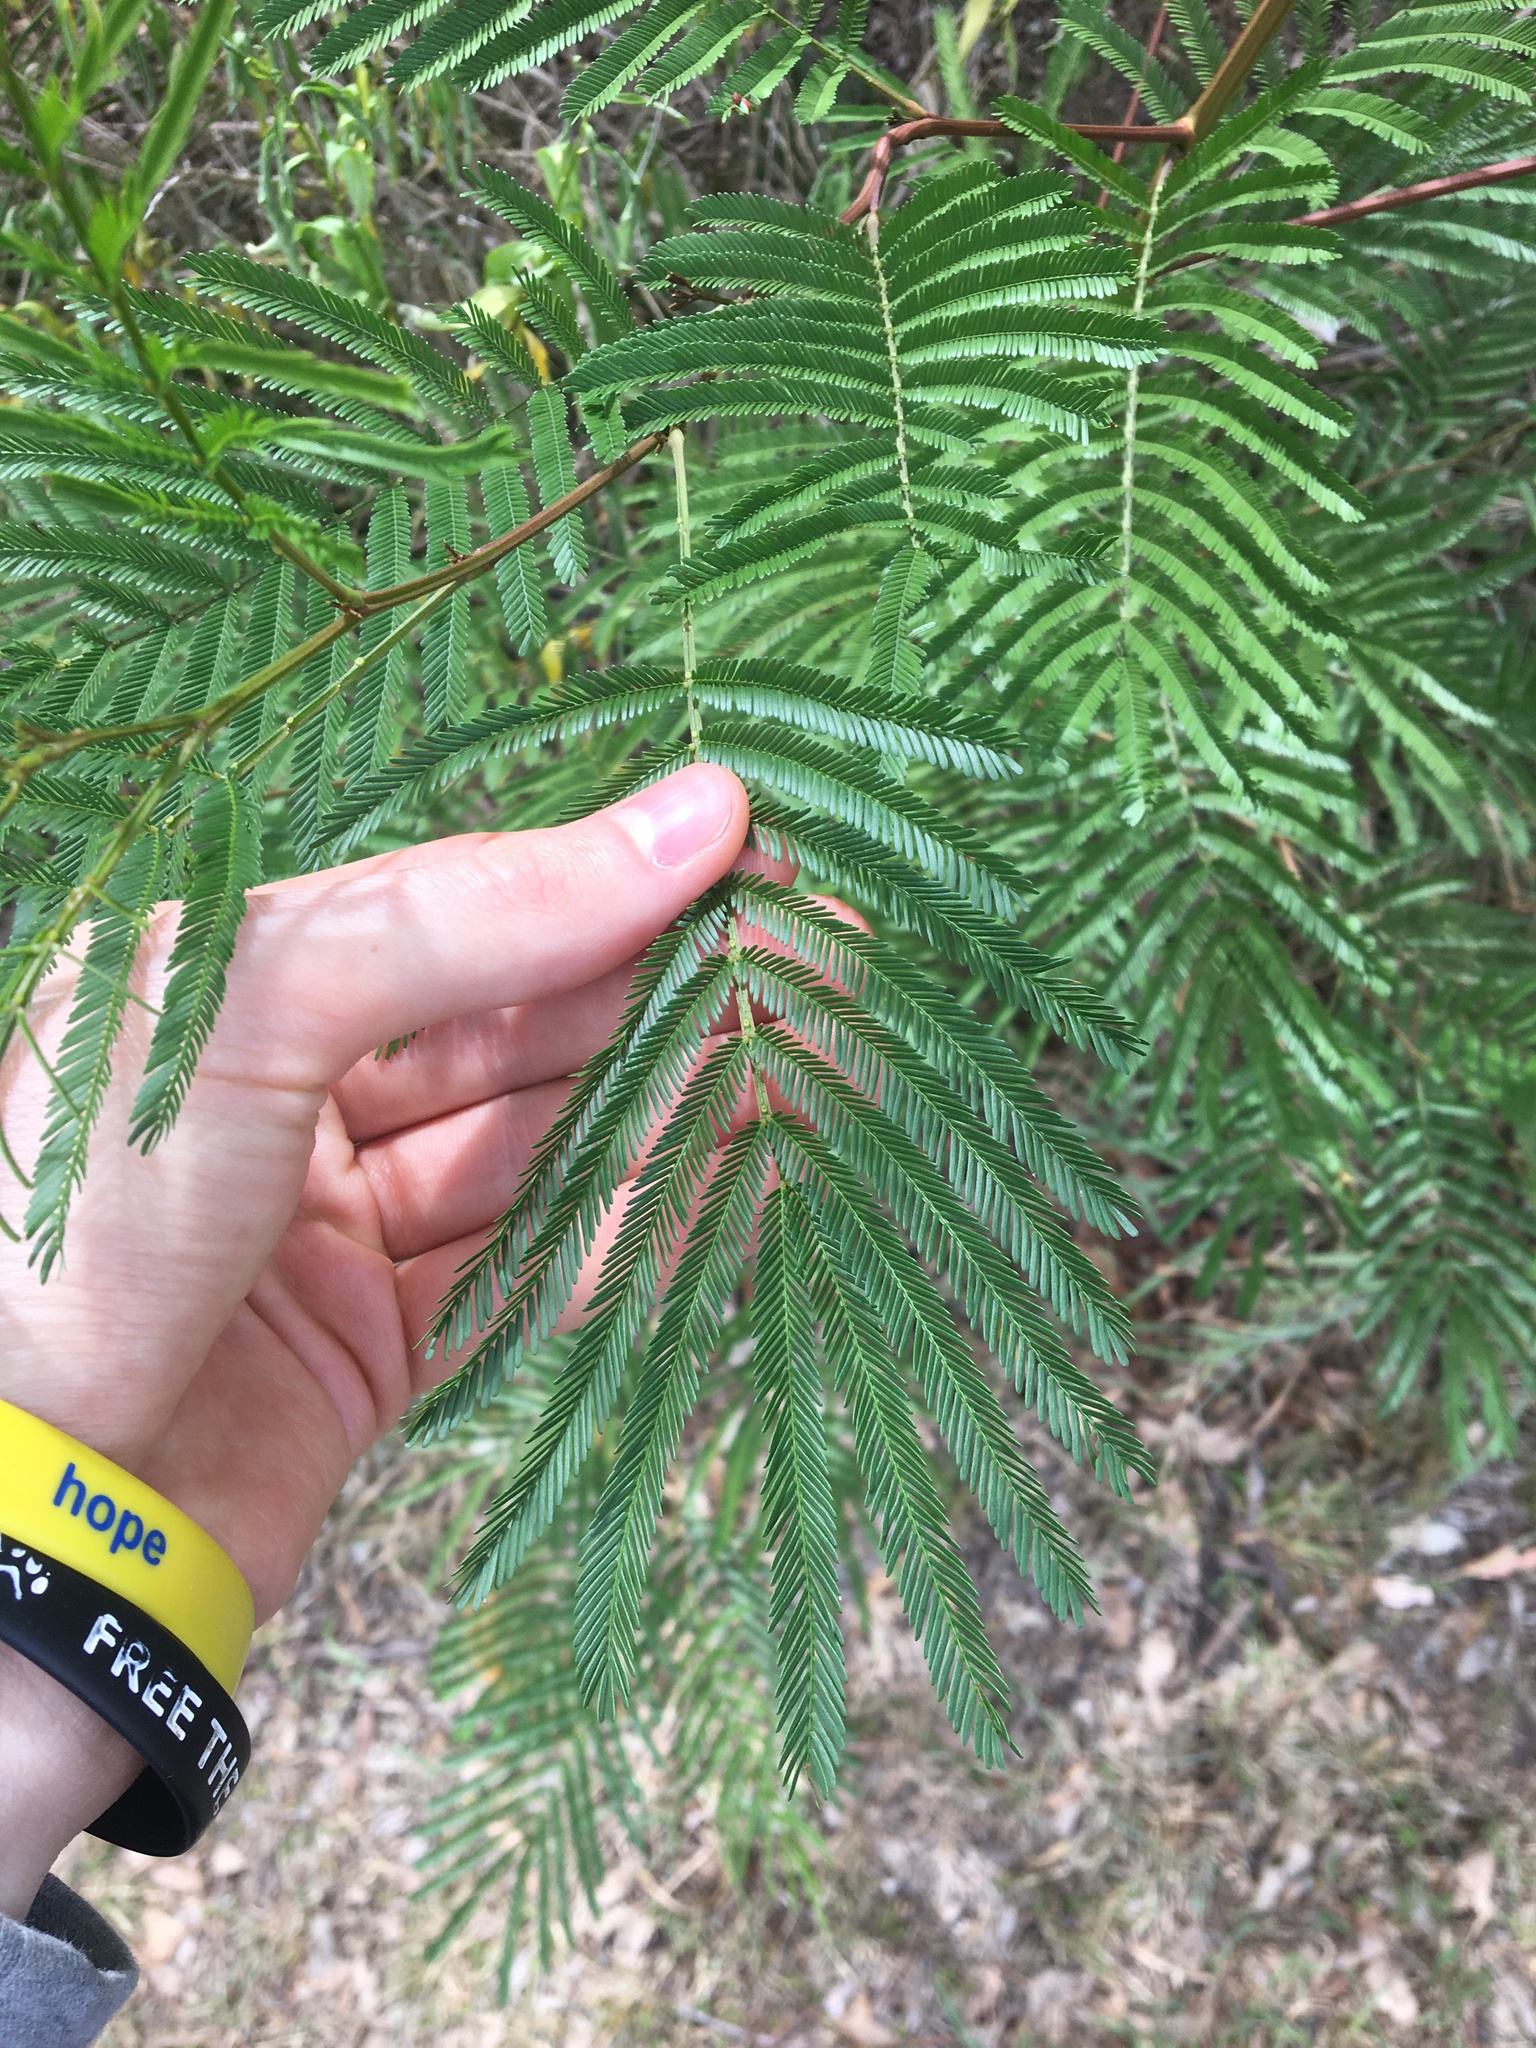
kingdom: Plantae
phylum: Tracheophyta
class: Magnoliopsida
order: Fabales
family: Fabaceae
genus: Acacia
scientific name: Acacia parramattensis
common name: Sydney green wattle
